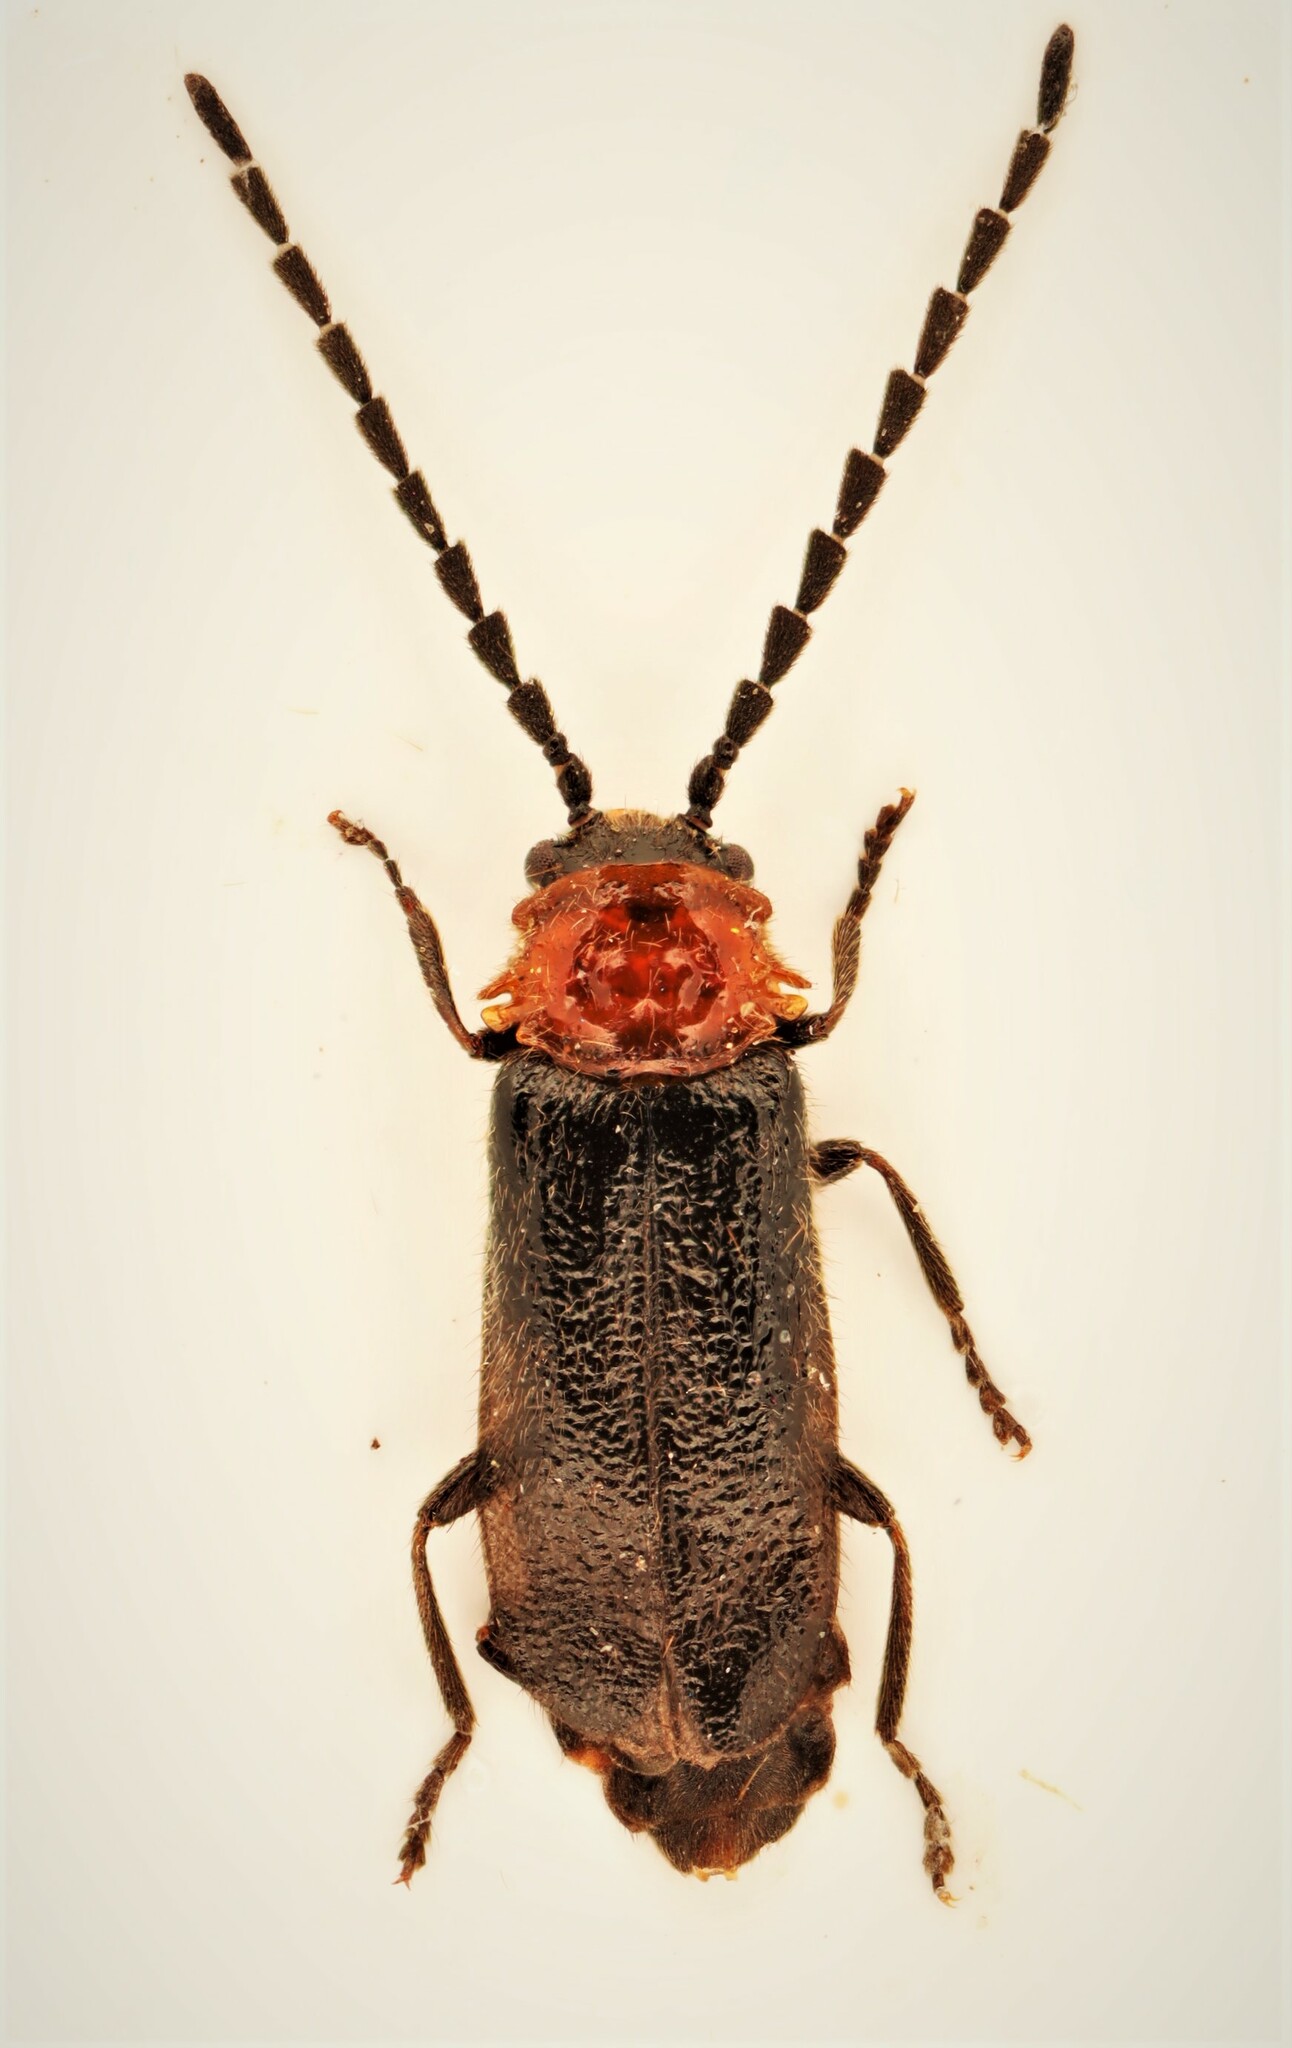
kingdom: Animalia
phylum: Arthropoda
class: Insecta
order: Coleoptera
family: Cantharidae
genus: Ditemnus
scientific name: Ditemnus bidentatus
